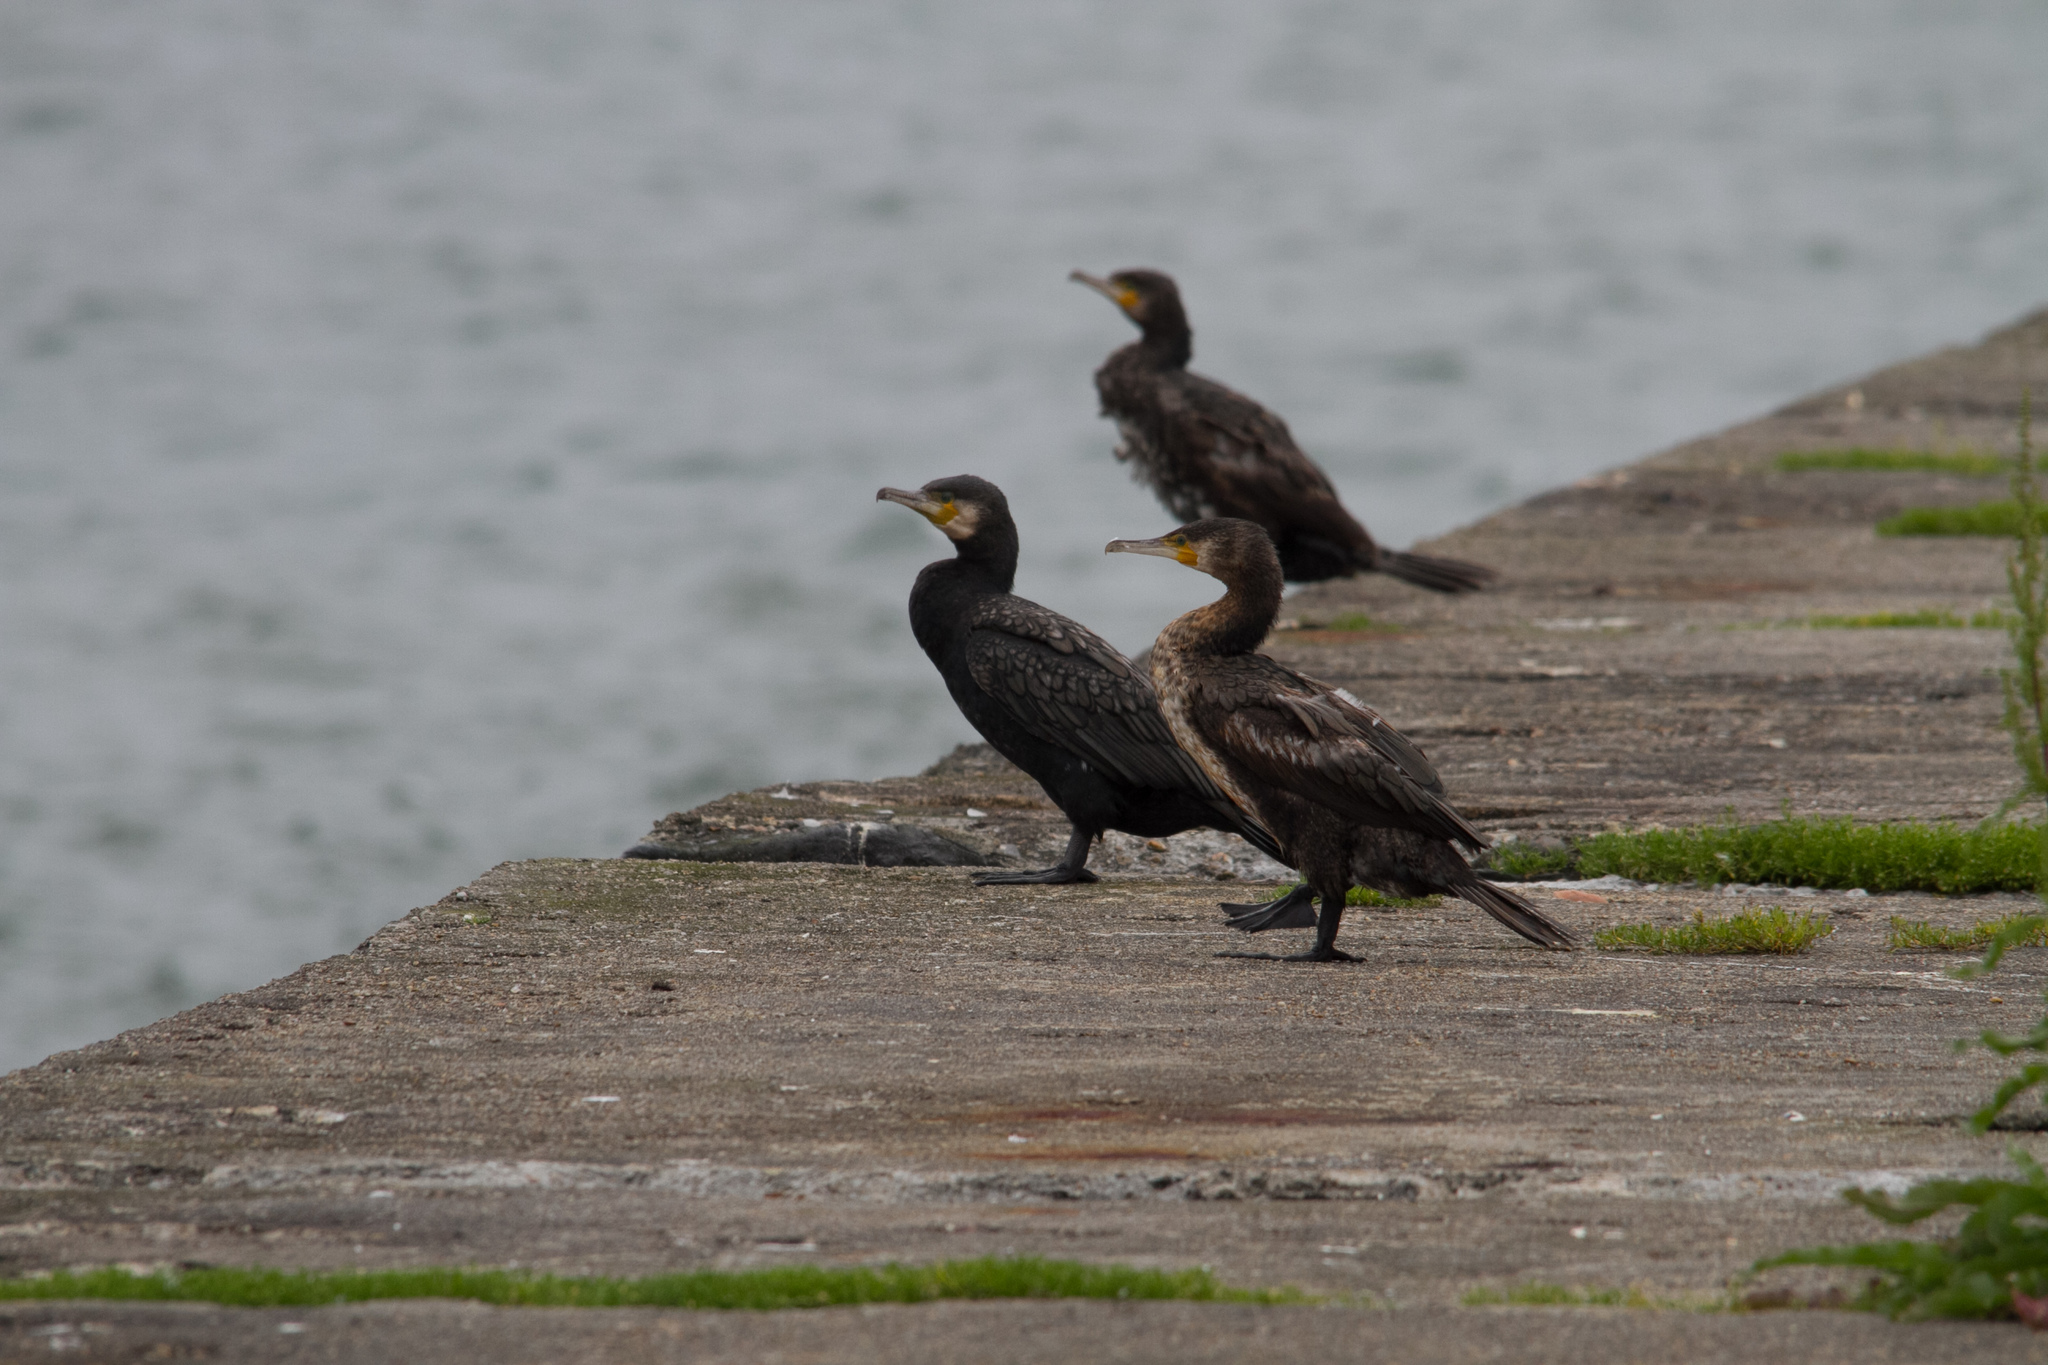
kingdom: Animalia
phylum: Chordata
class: Aves
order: Suliformes
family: Phalacrocoracidae
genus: Phalacrocorax
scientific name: Phalacrocorax carbo
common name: Great cormorant
